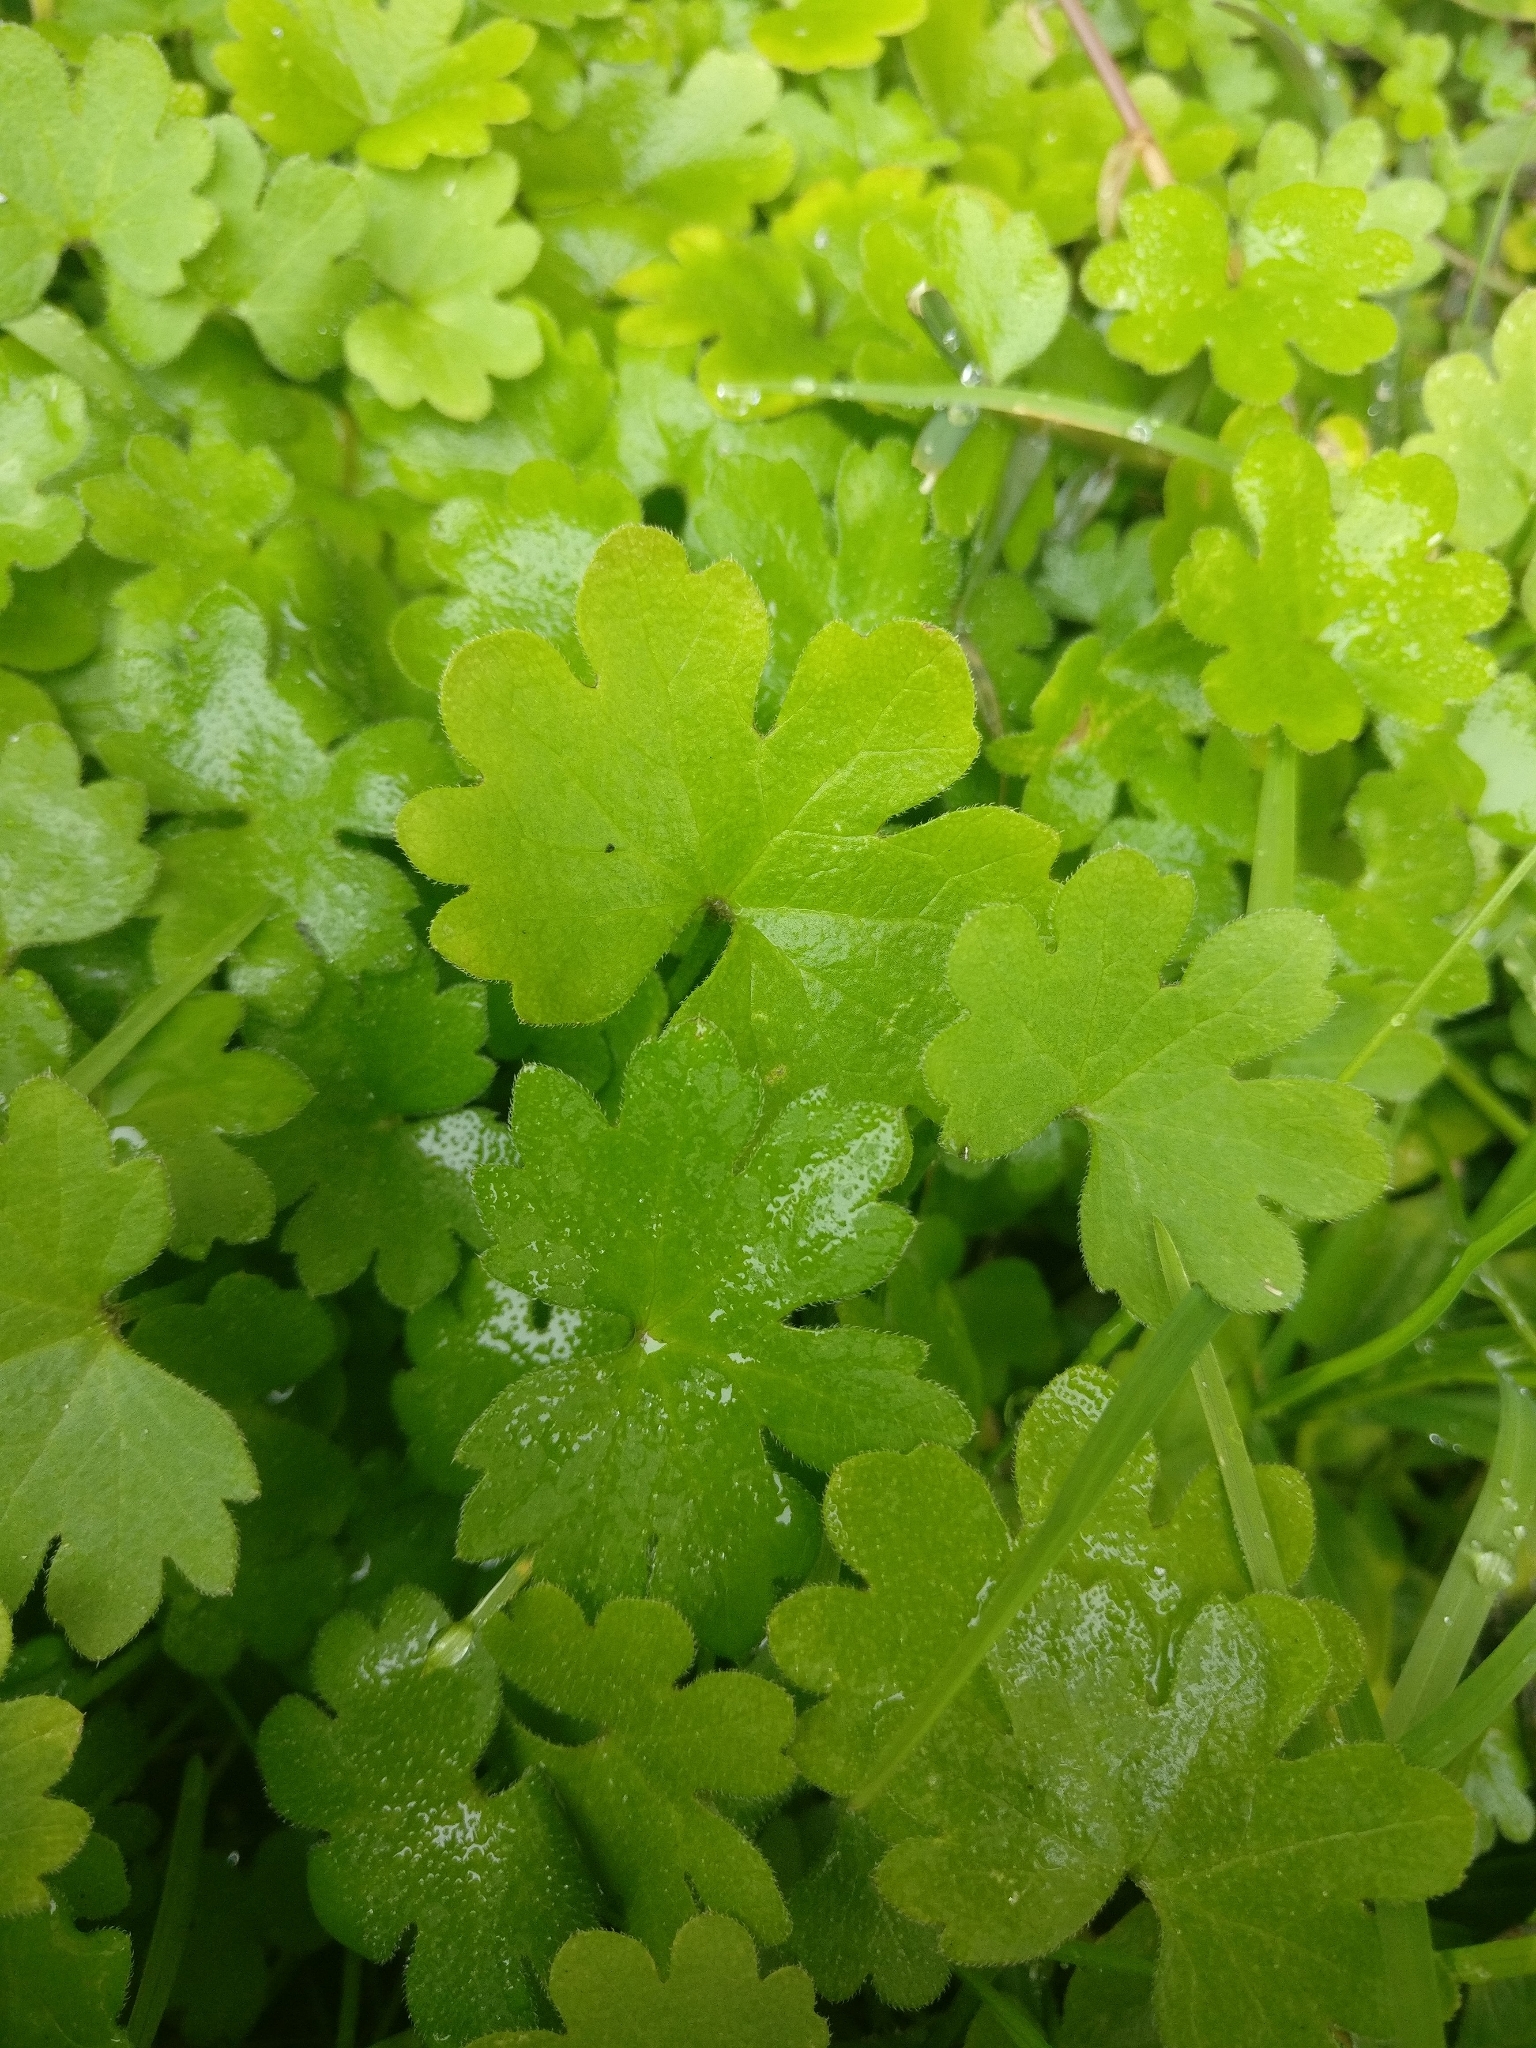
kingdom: Plantae
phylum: Tracheophyta
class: Magnoliopsida
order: Apiales
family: Apiaceae
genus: Bowlesia
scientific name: Bowlesia incana
